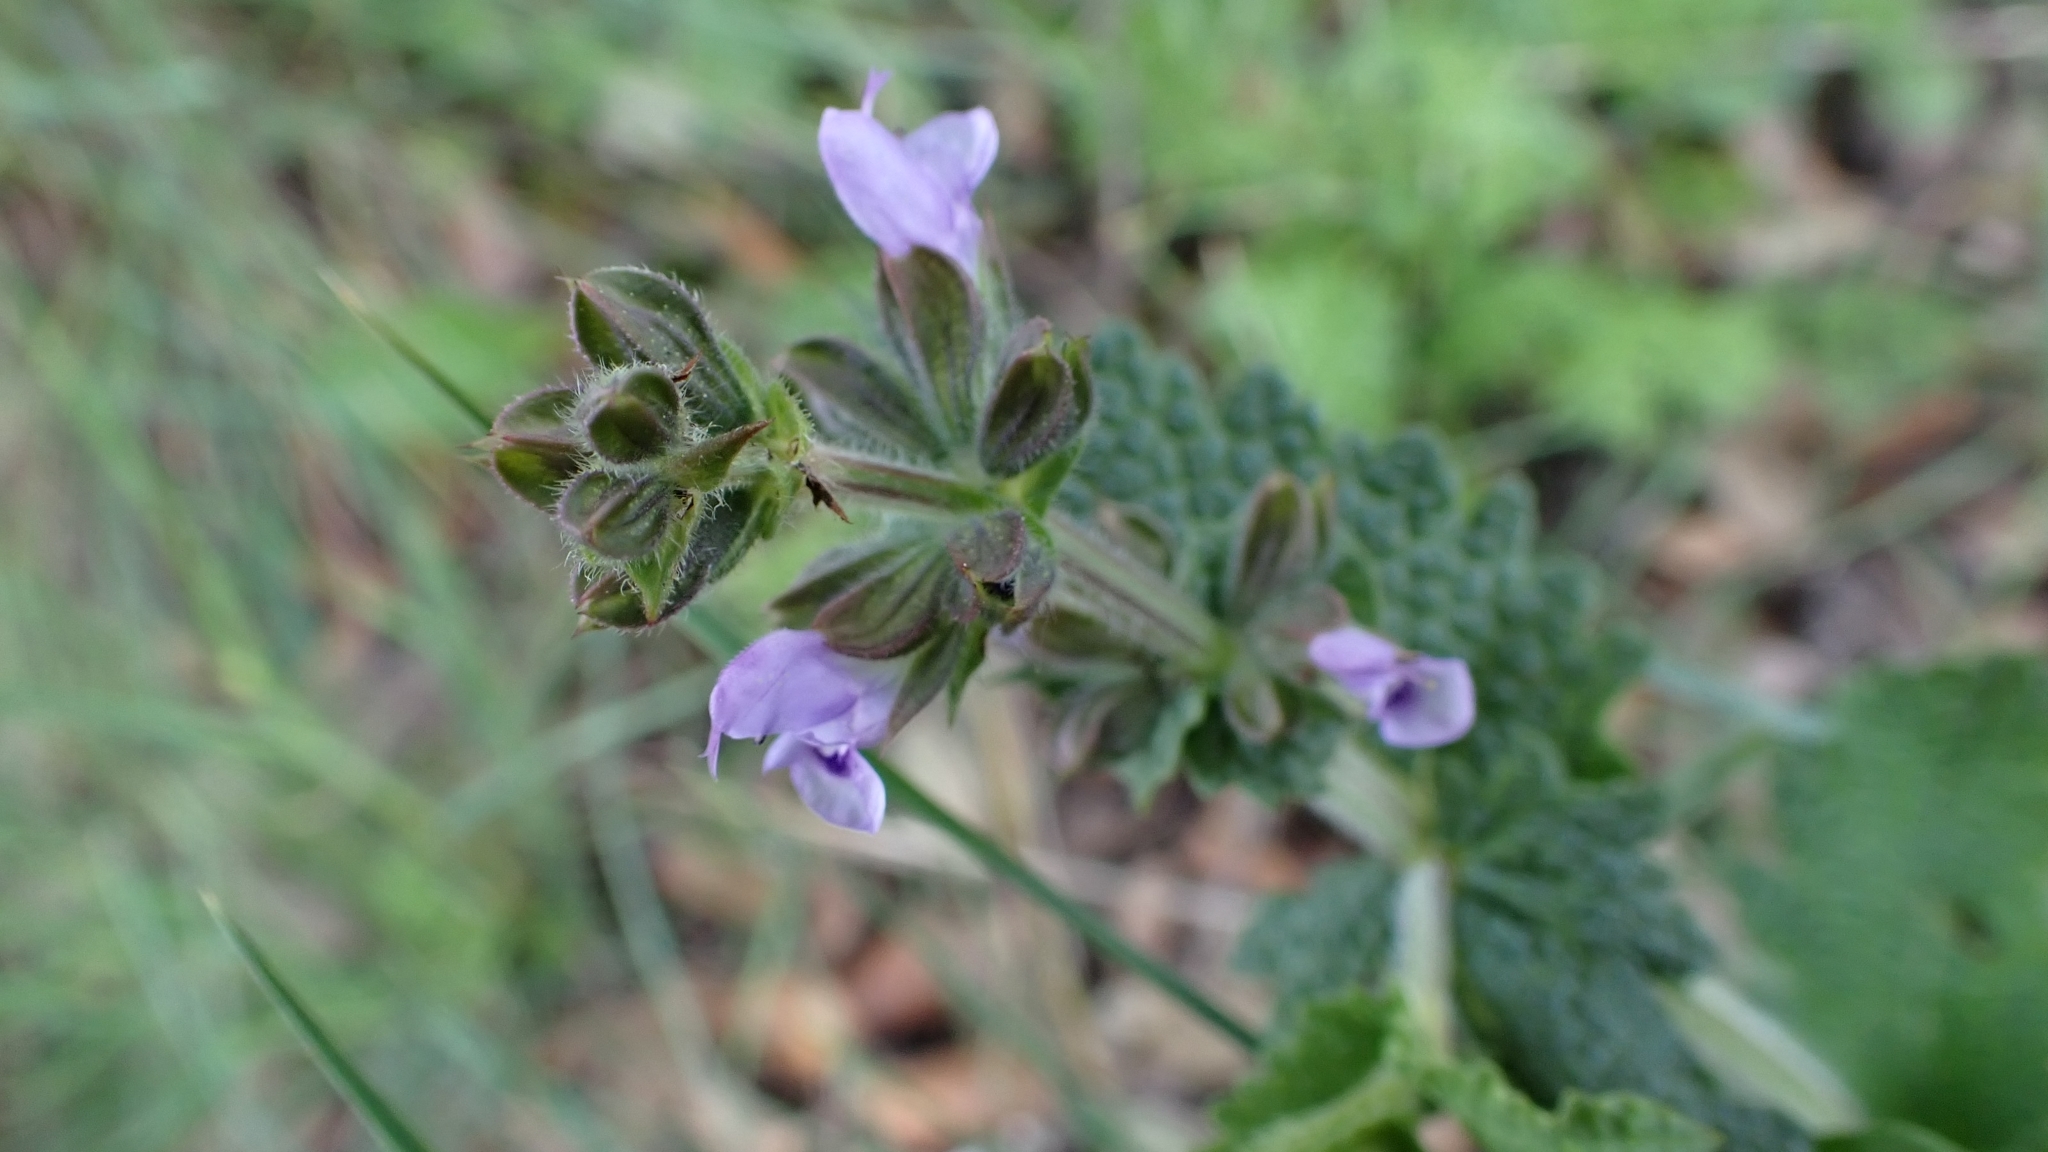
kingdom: Plantae
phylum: Tracheophyta
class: Magnoliopsida
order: Lamiales
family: Lamiaceae
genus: Salvia
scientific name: Salvia verbenaca
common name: Wild clary
